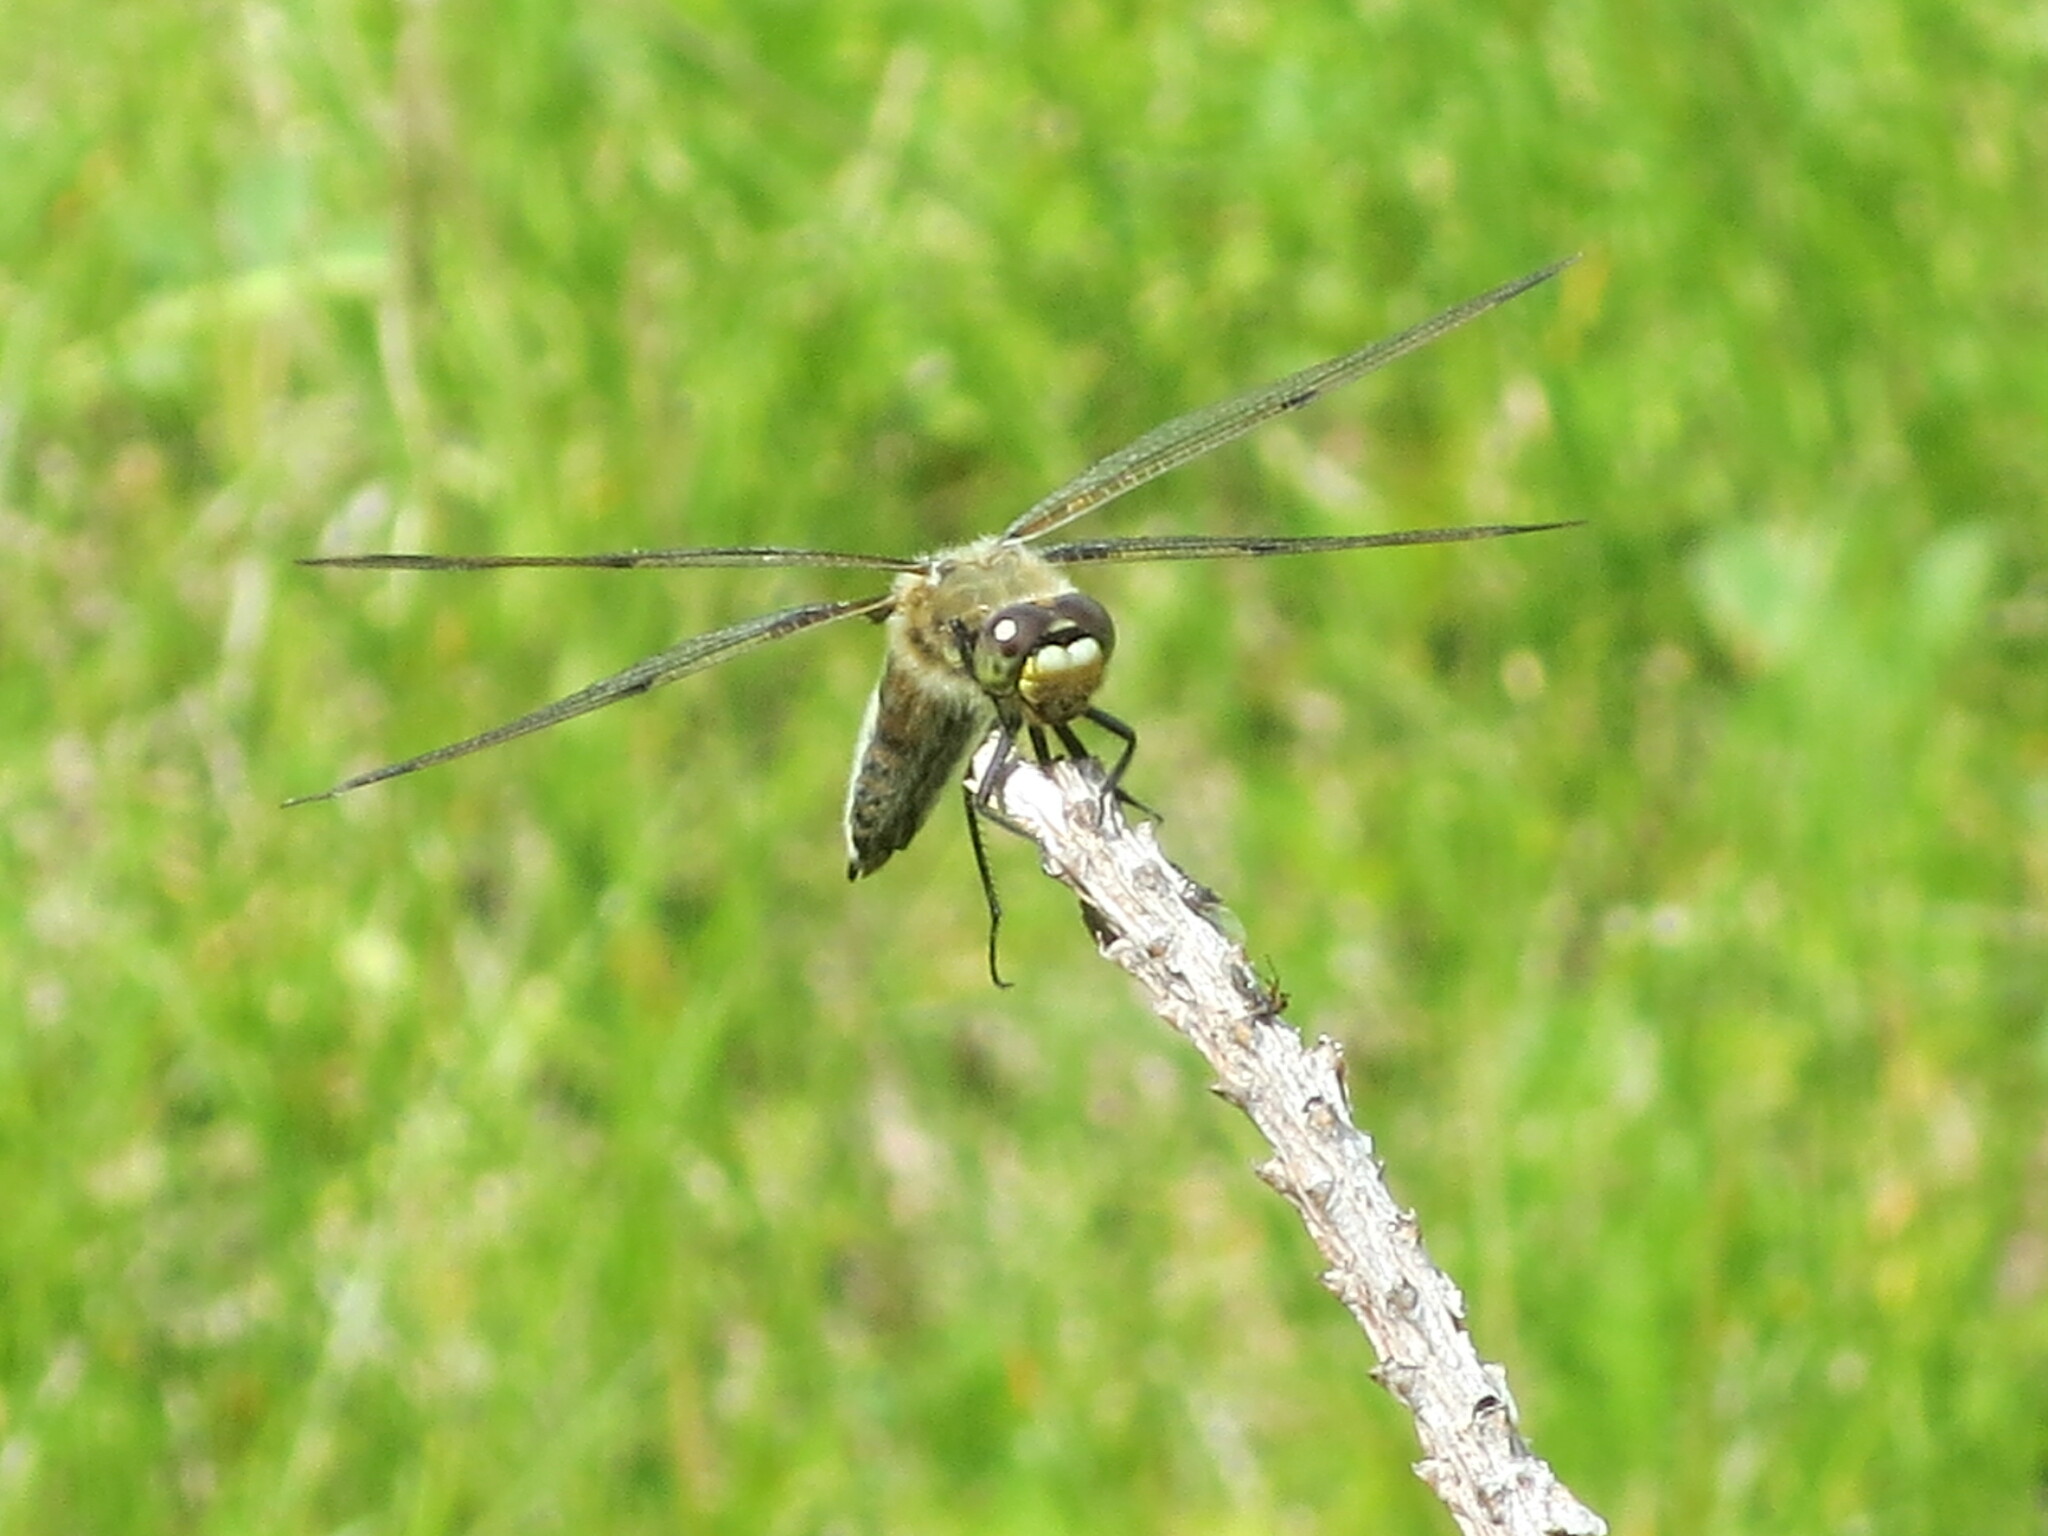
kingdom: Animalia
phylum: Arthropoda
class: Insecta
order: Odonata
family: Libellulidae
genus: Libellula
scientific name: Libellula quadrimaculata
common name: Four-spotted chaser
